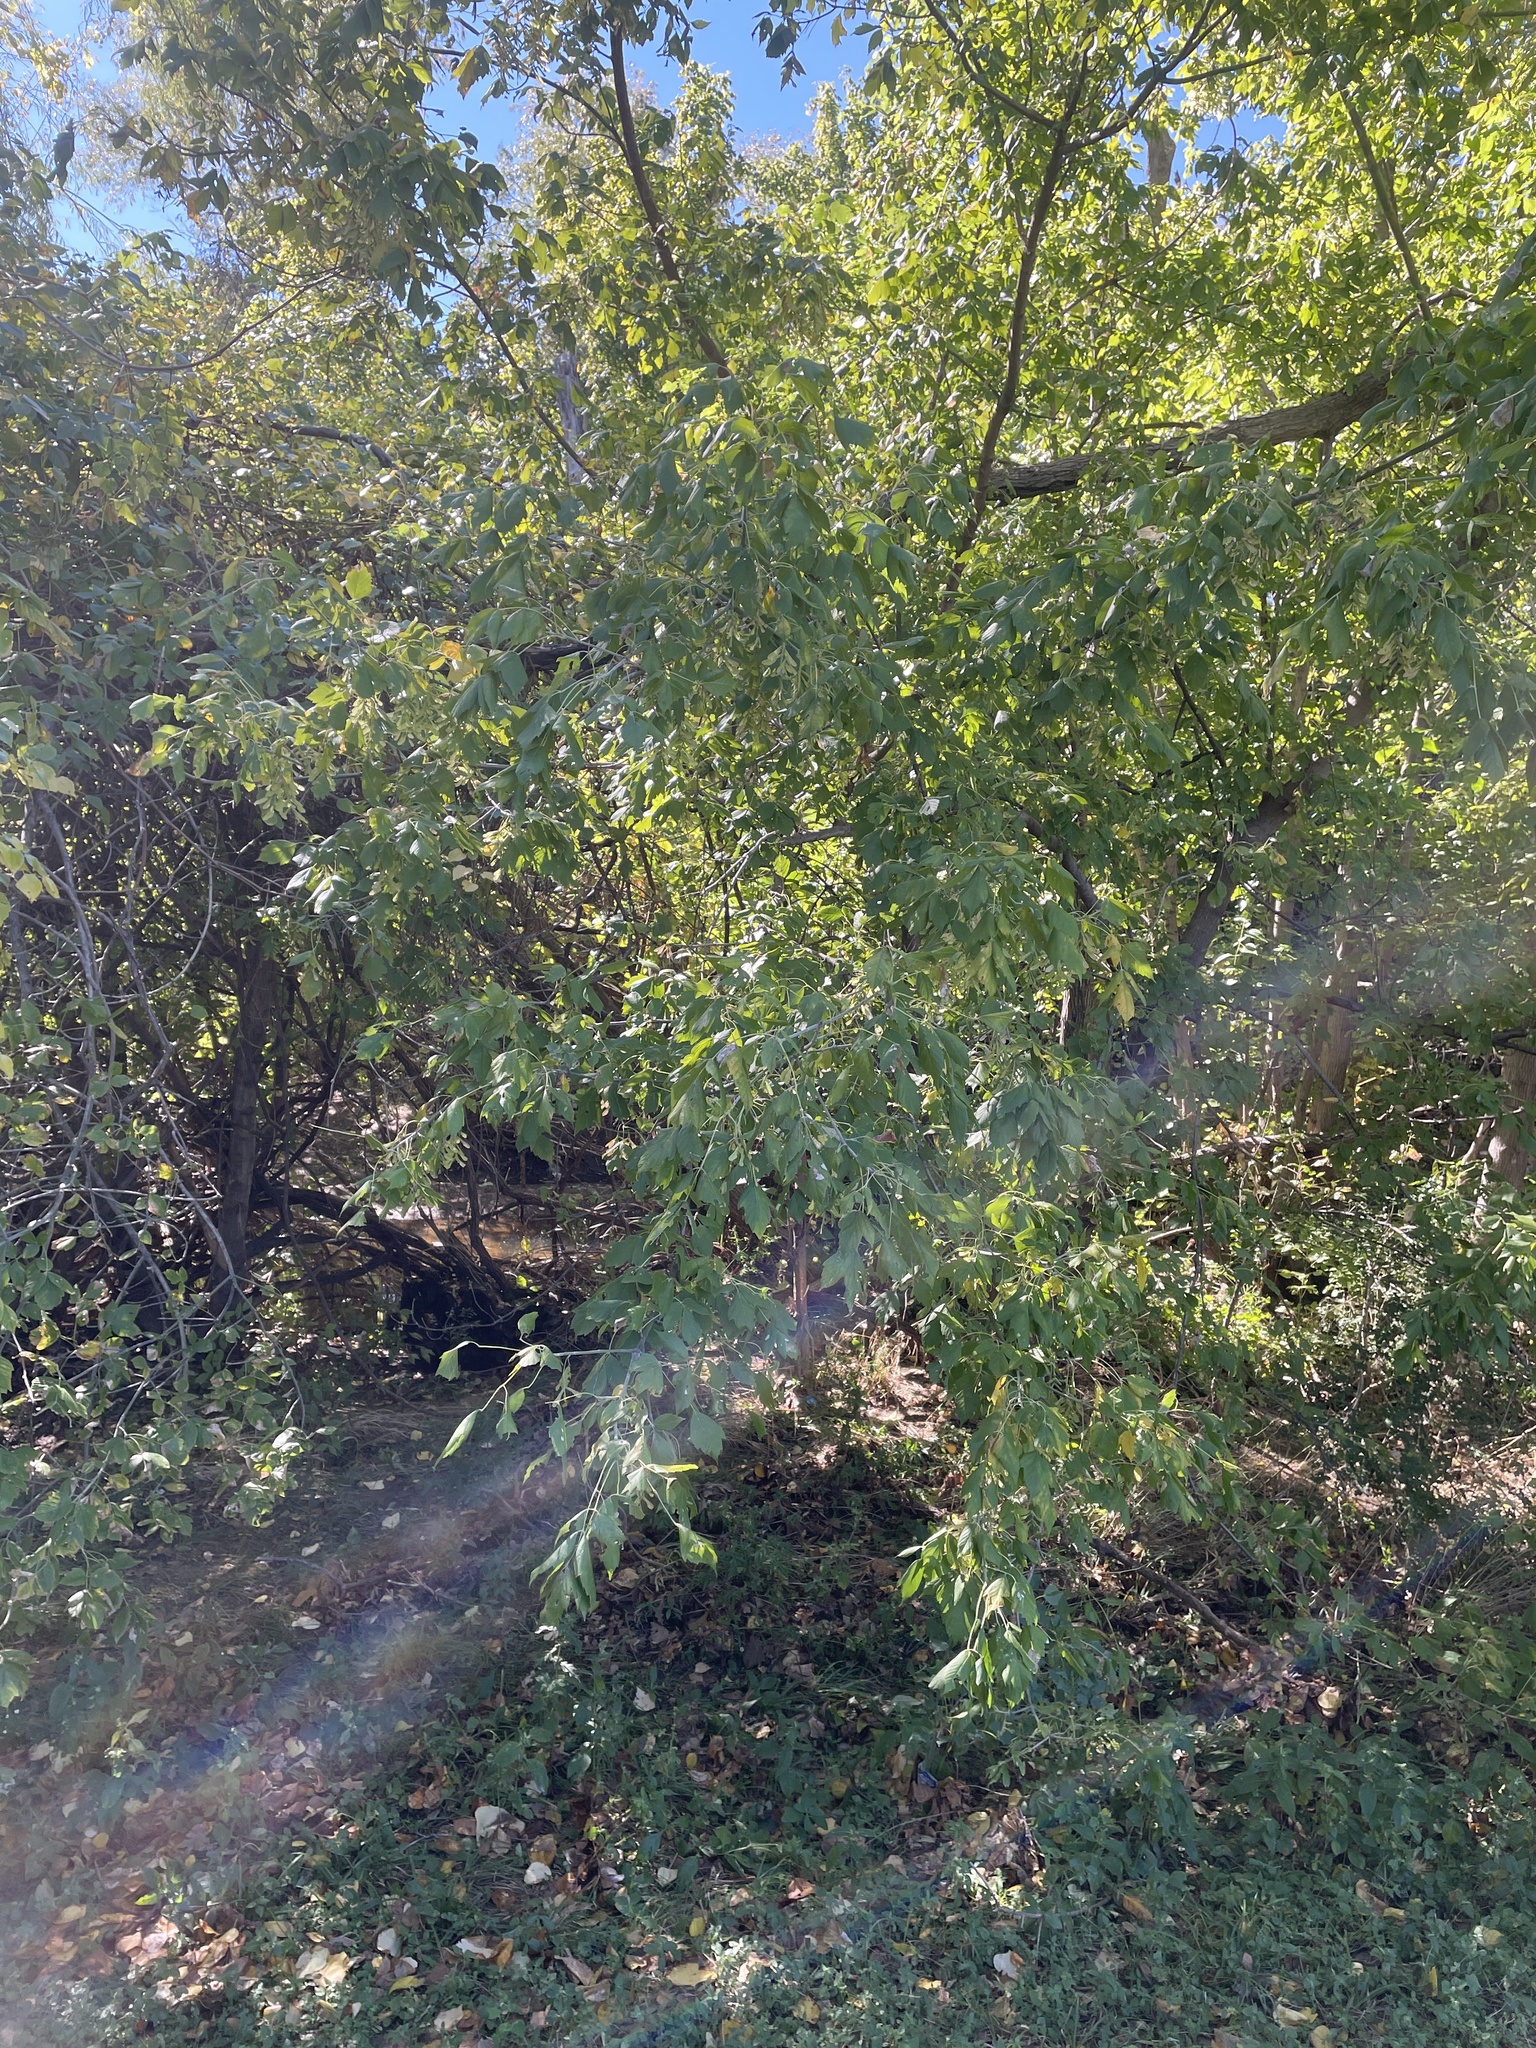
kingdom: Plantae
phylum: Tracheophyta
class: Magnoliopsida
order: Sapindales
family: Sapindaceae
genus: Acer
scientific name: Acer negundo
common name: Ashleaf maple
